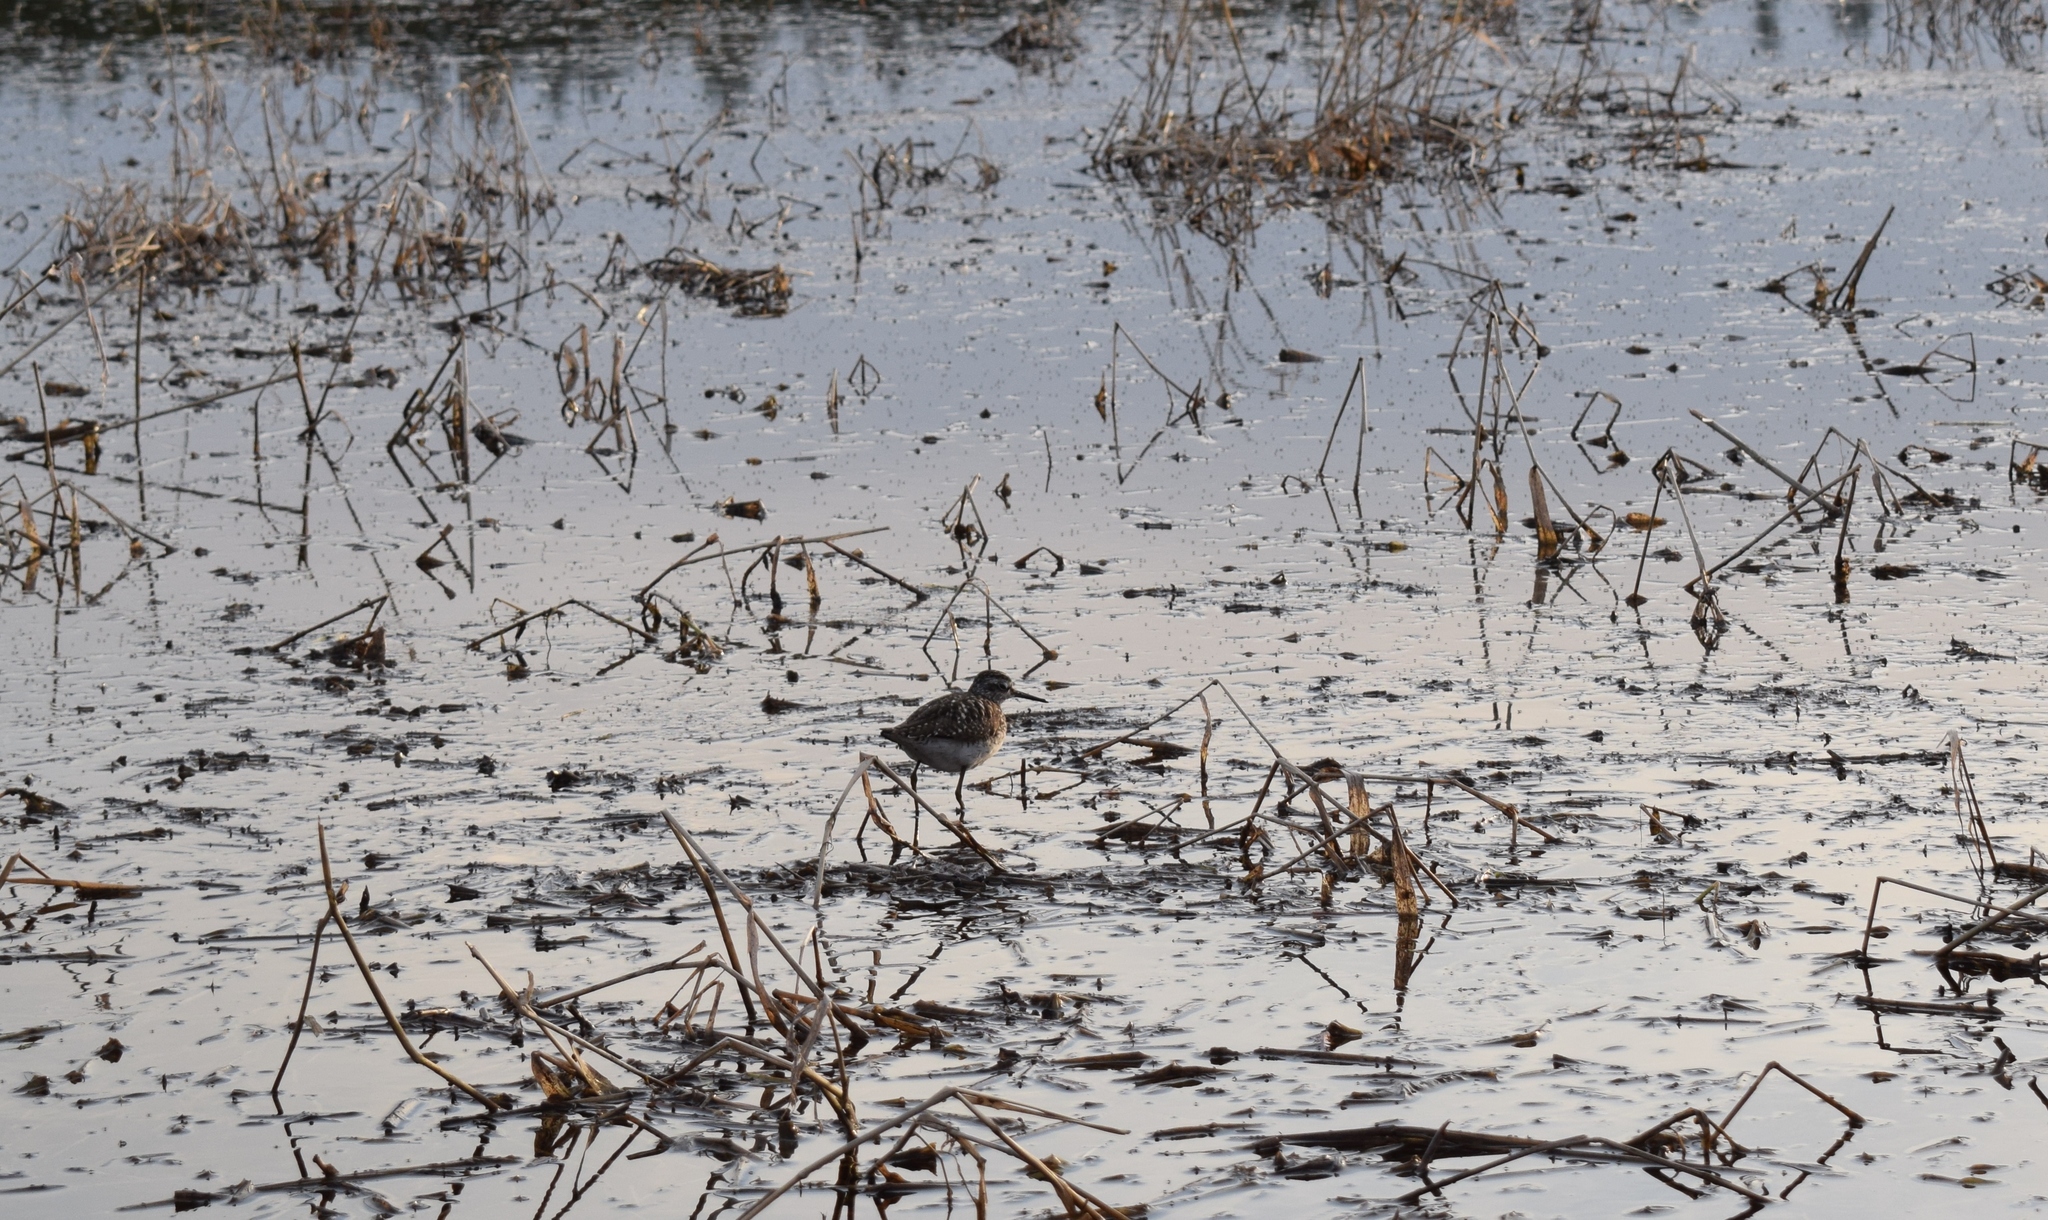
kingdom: Animalia
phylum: Chordata
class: Aves
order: Charadriiformes
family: Scolopacidae
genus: Tringa
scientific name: Tringa glareola
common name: Wood sandpiper
